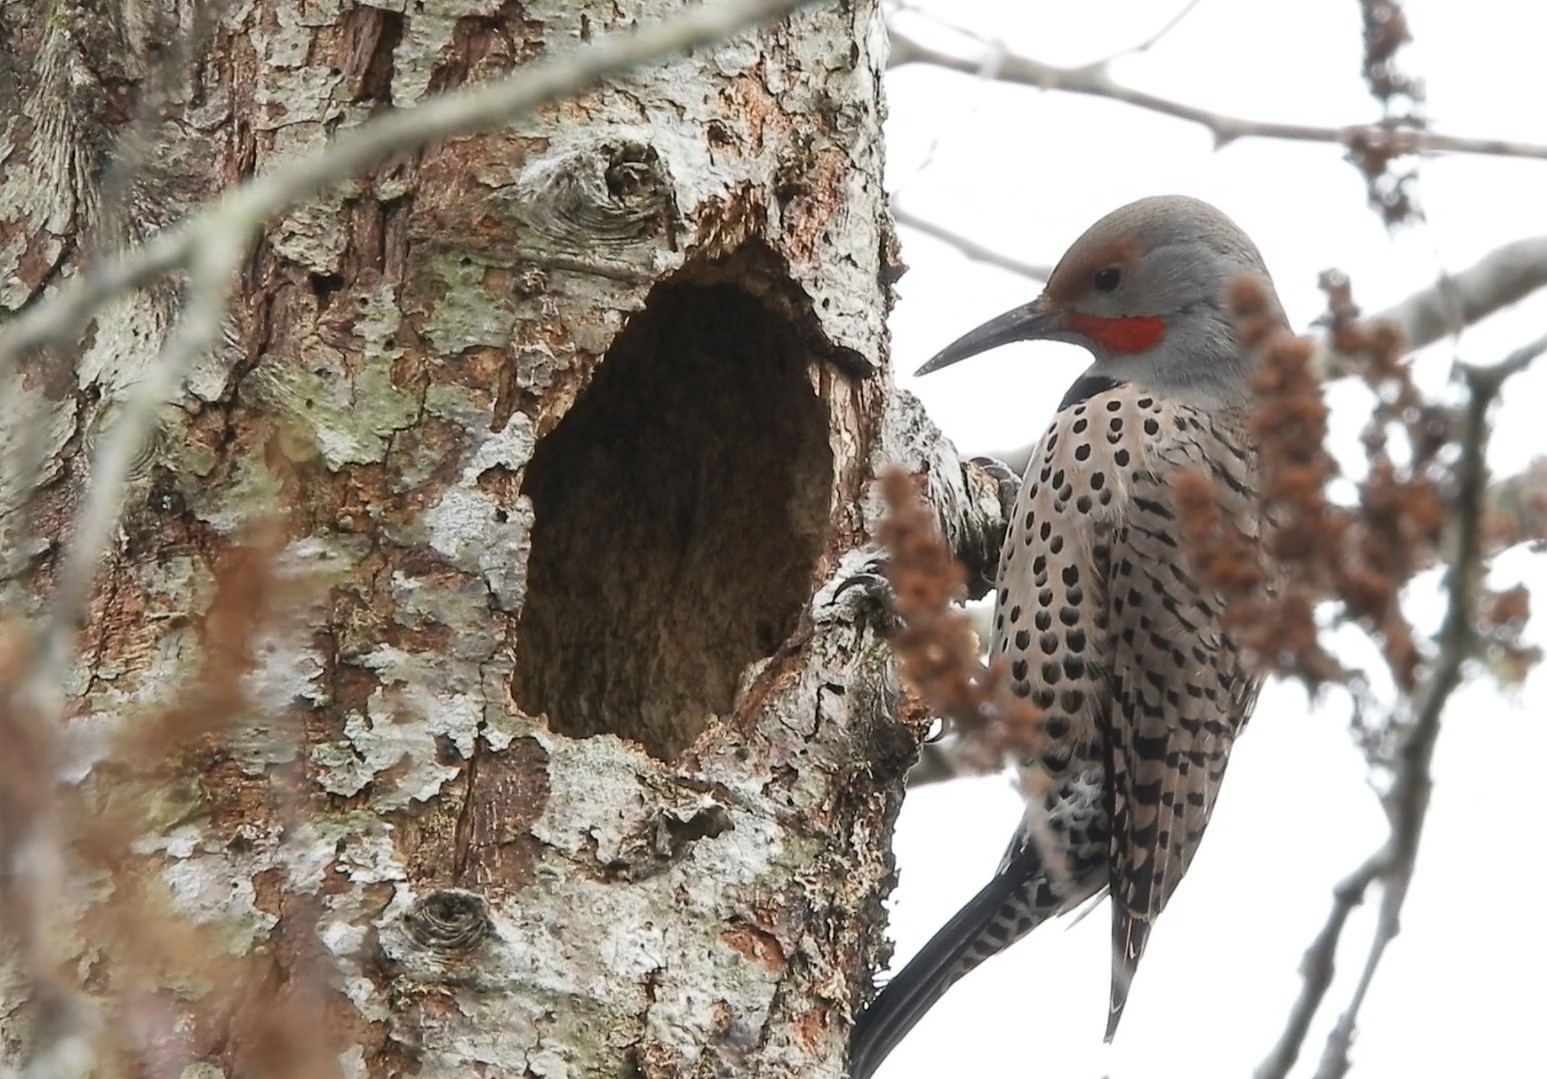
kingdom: Animalia
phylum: Chordata
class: Aves
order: Piciformes
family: Picidae
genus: Colaptes
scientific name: Colaptes auratus
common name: Northern flicker
